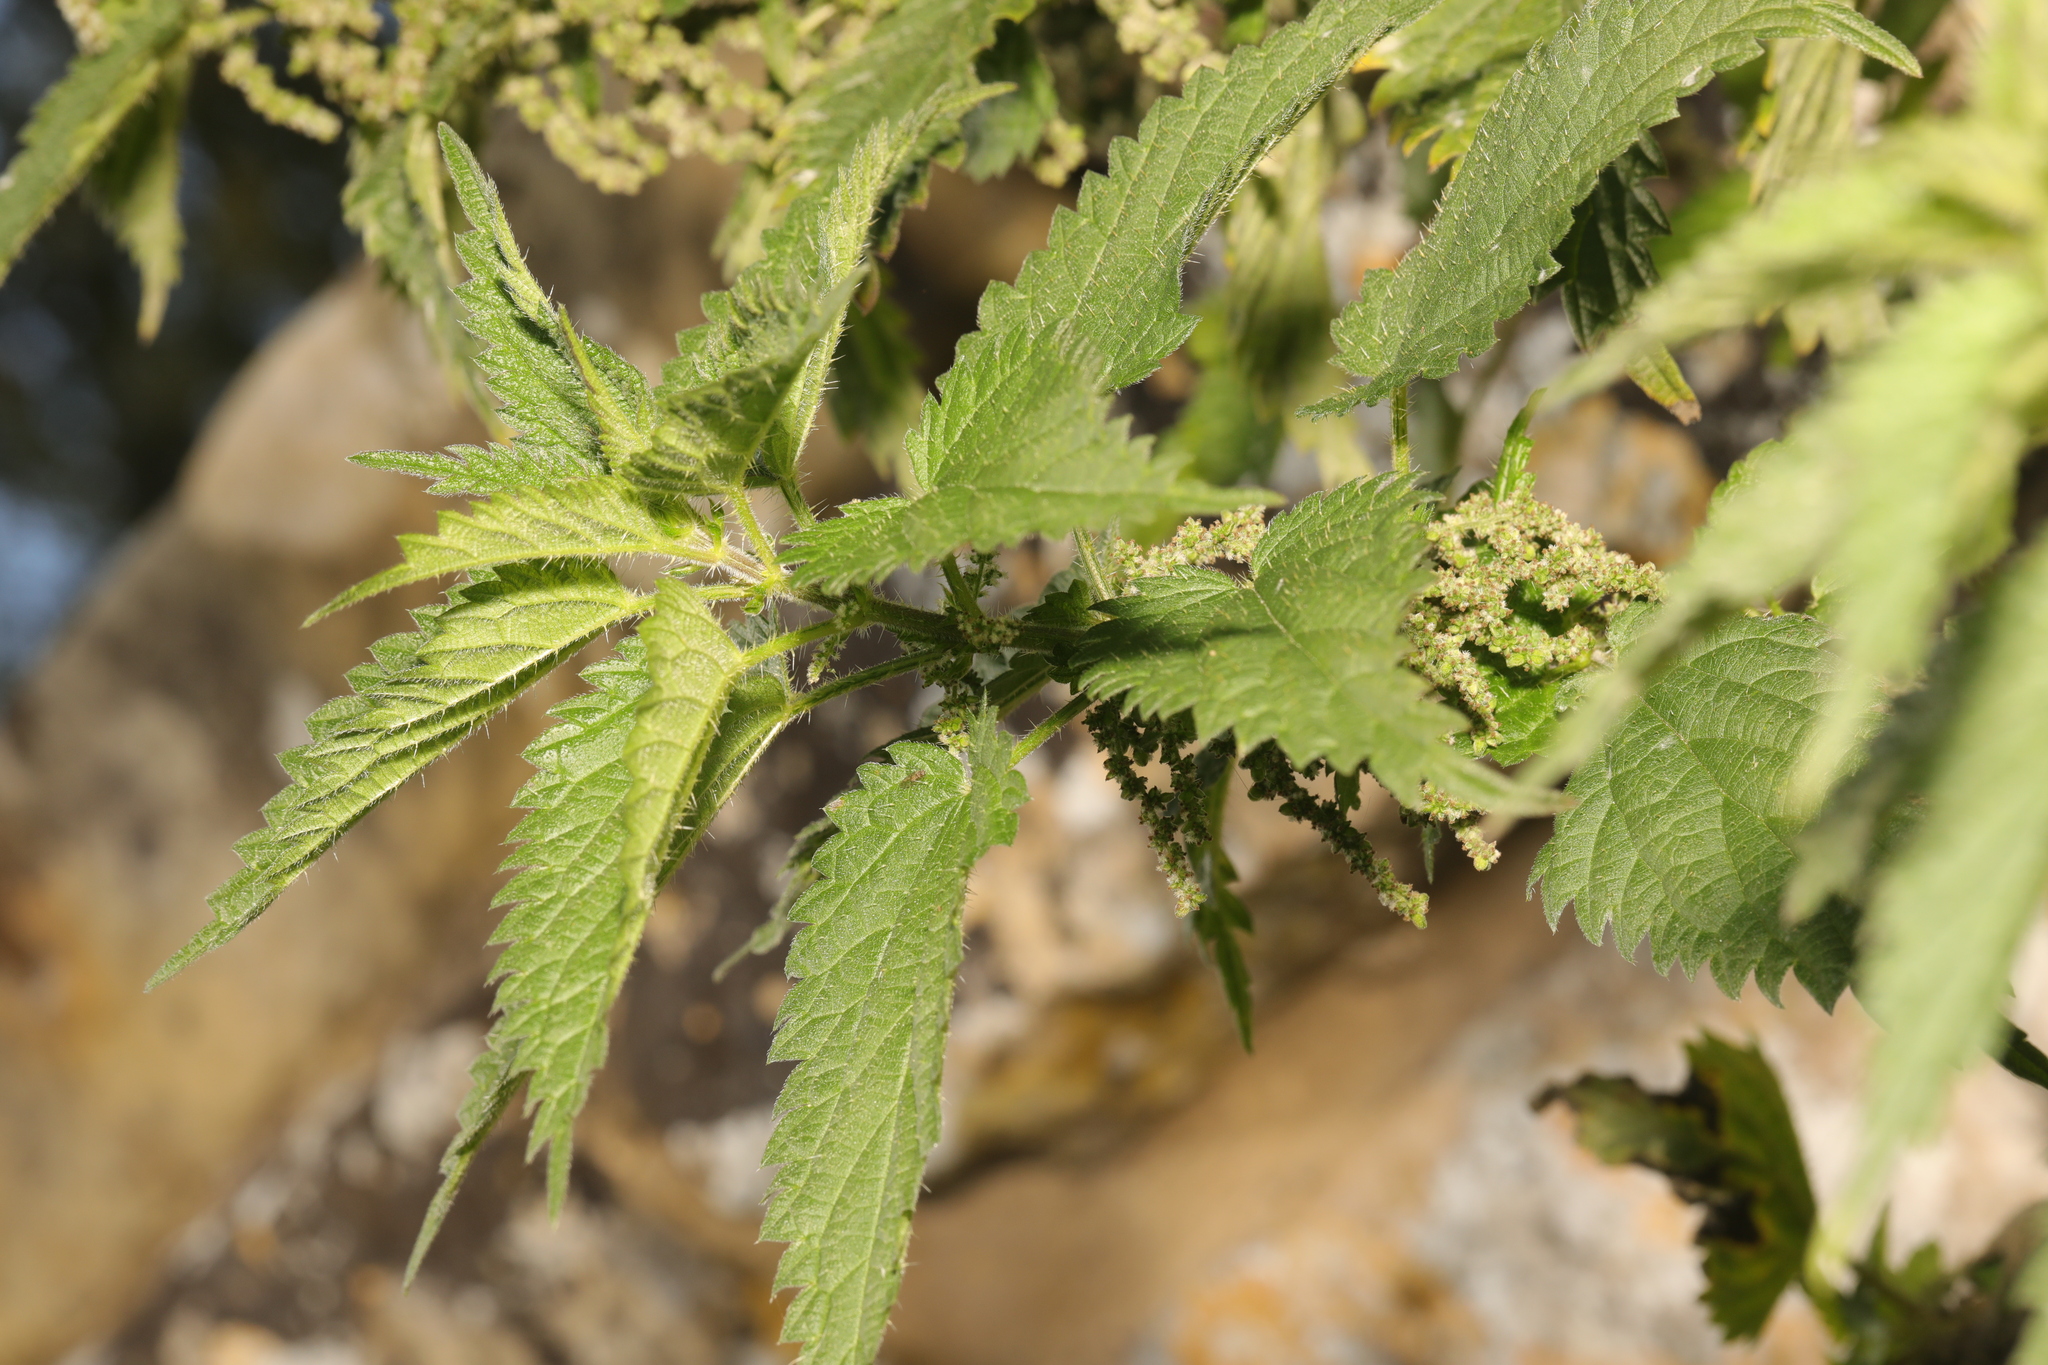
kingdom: Plantae
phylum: Tracheophyta
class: Magnoliopsida
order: Rosales
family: Urticaceae
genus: Urtica
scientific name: Urtica dioica
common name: Common nettle
